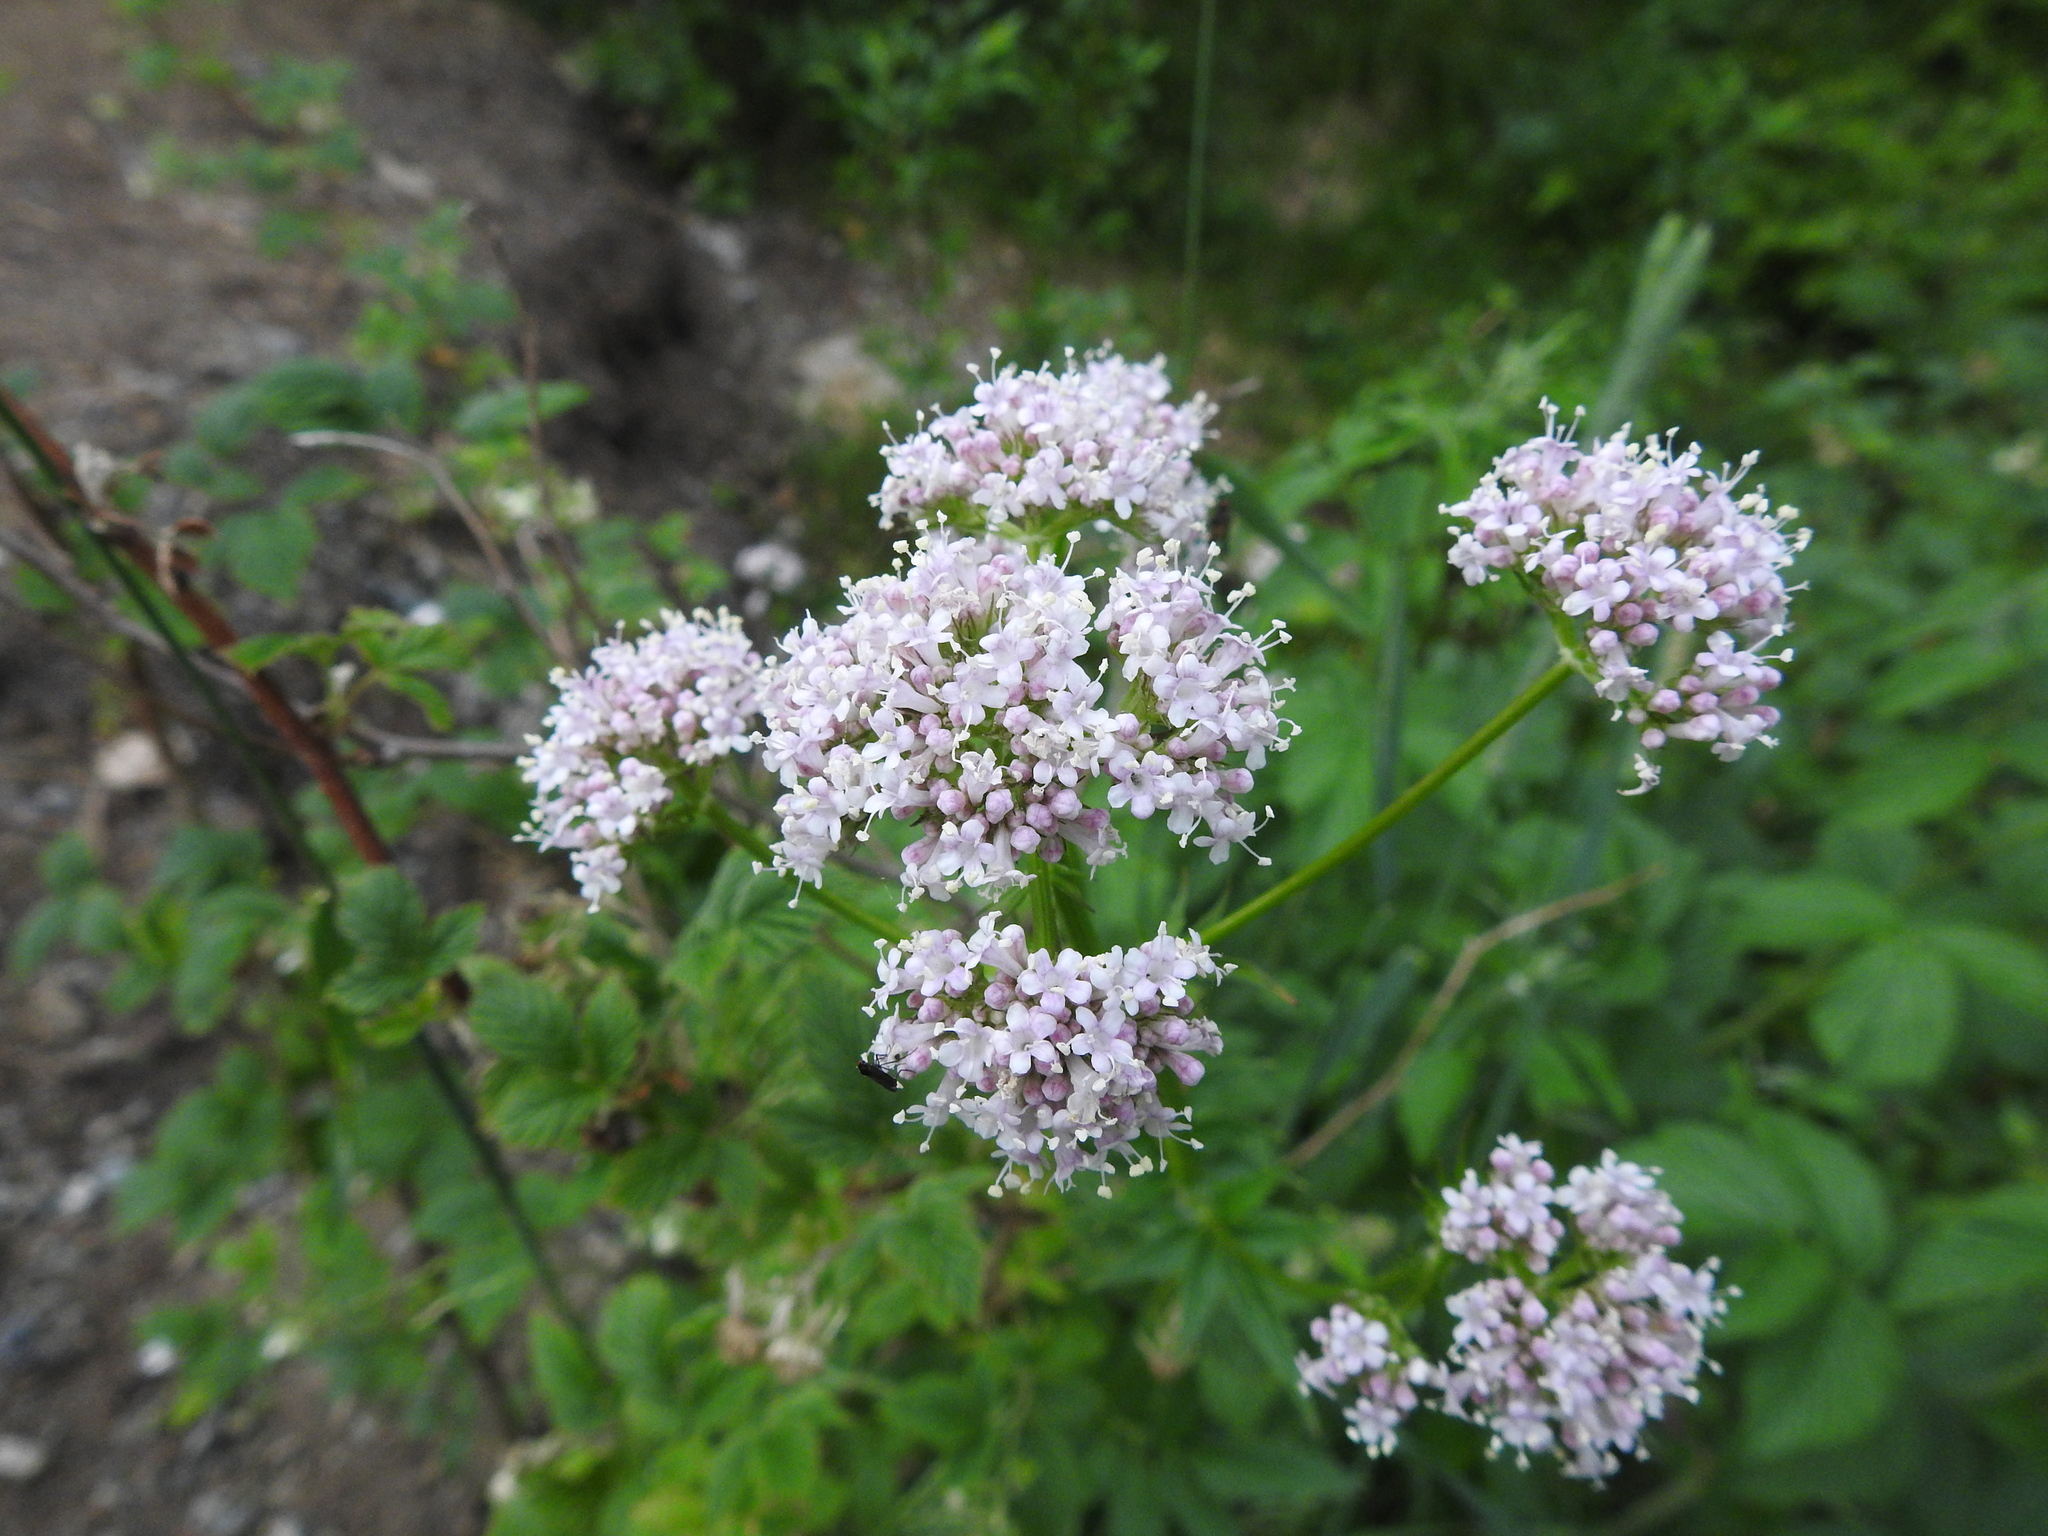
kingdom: Plantae
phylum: Tracheophyta
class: Magnoliopsida
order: Dipsacales
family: Caprifoliaceae
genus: Valeriana
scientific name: Valeriana sambucifolia
